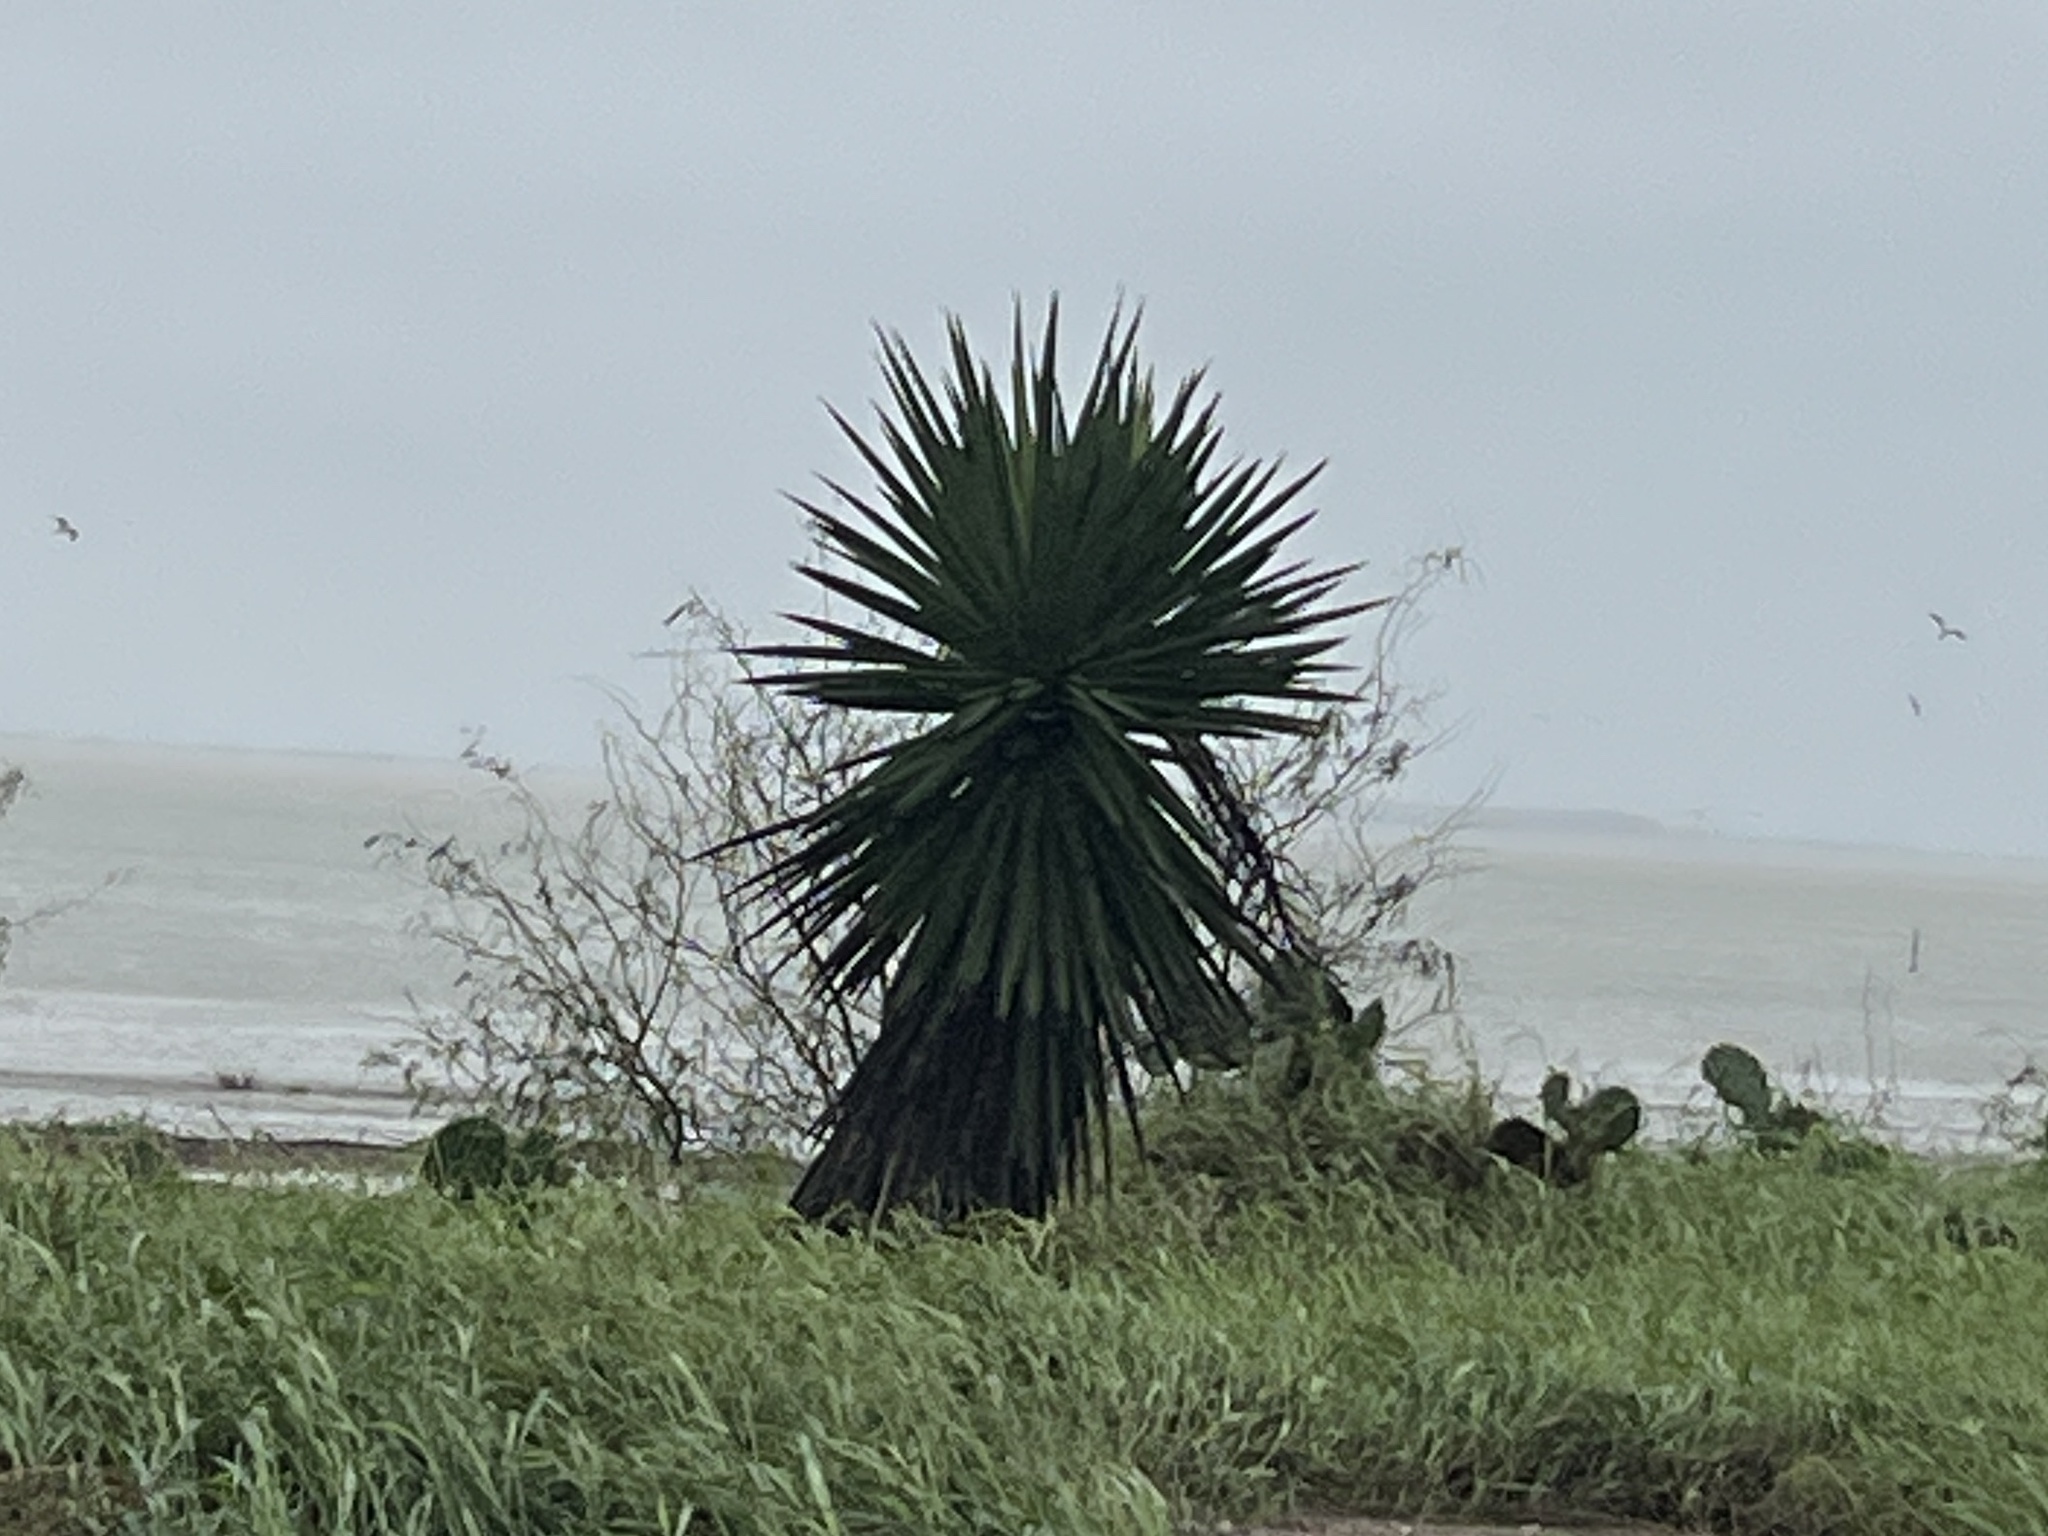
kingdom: Plantae
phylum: Tracheophyta
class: Liliopsida
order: Asparagales
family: Asparagaceae
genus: Yucca
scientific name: Yucca treculiana
